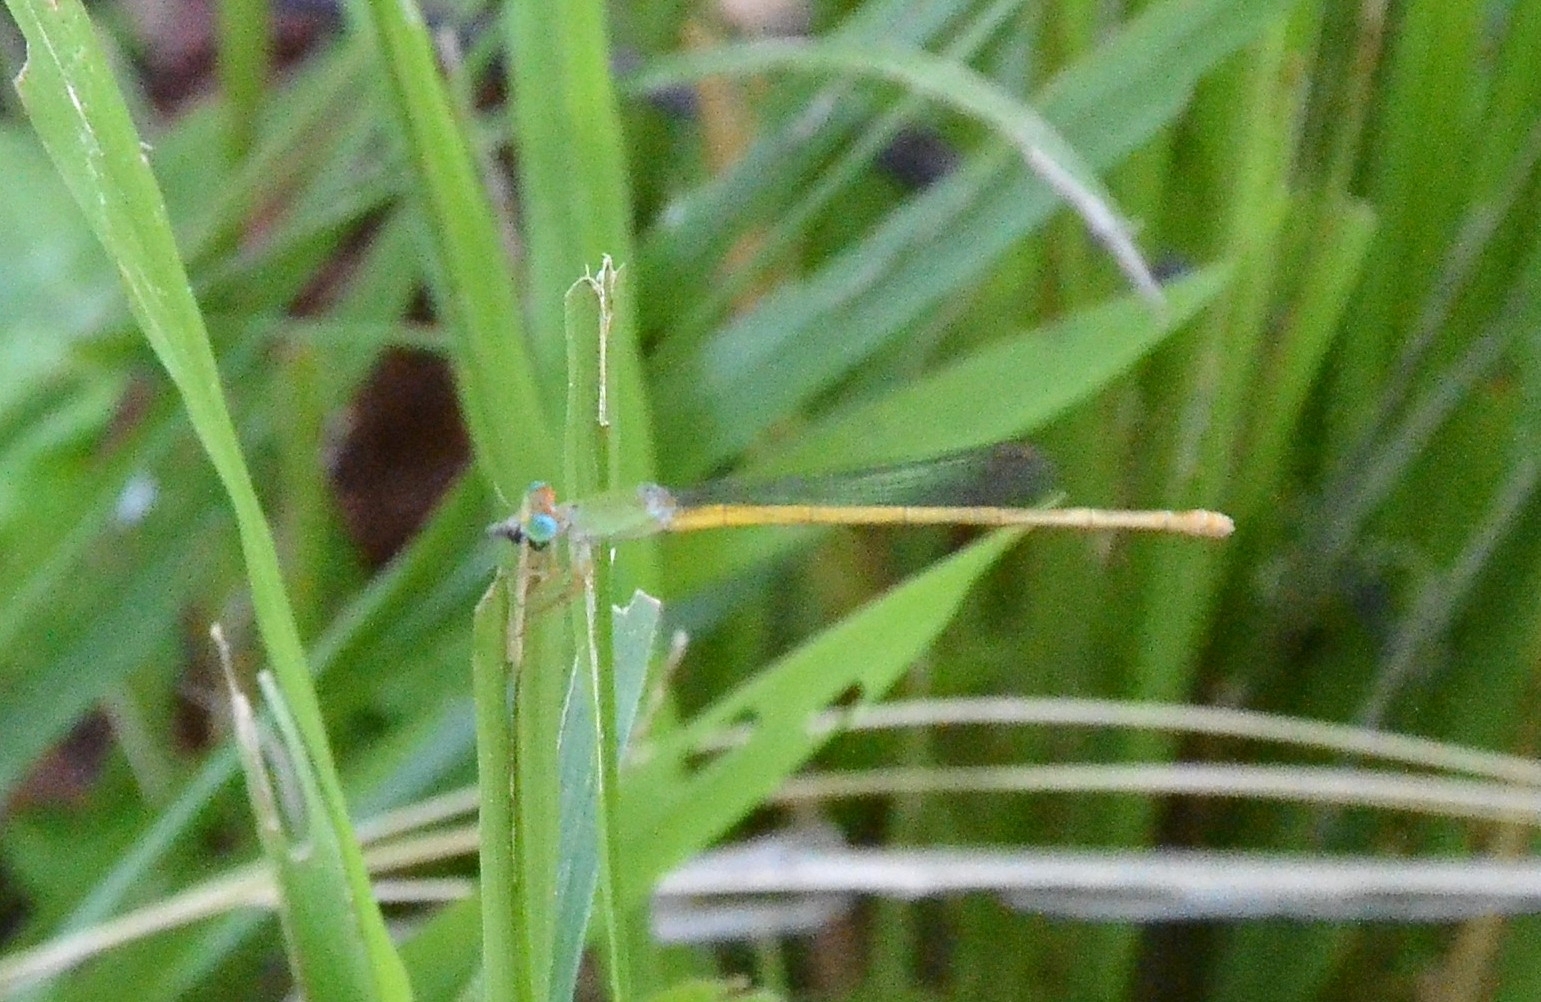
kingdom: Animalia
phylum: Arthropoda
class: Insecta
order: Odonata
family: Coenagrionidae
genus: Ceriagrion
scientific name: Ceriagrion coromandelianum
